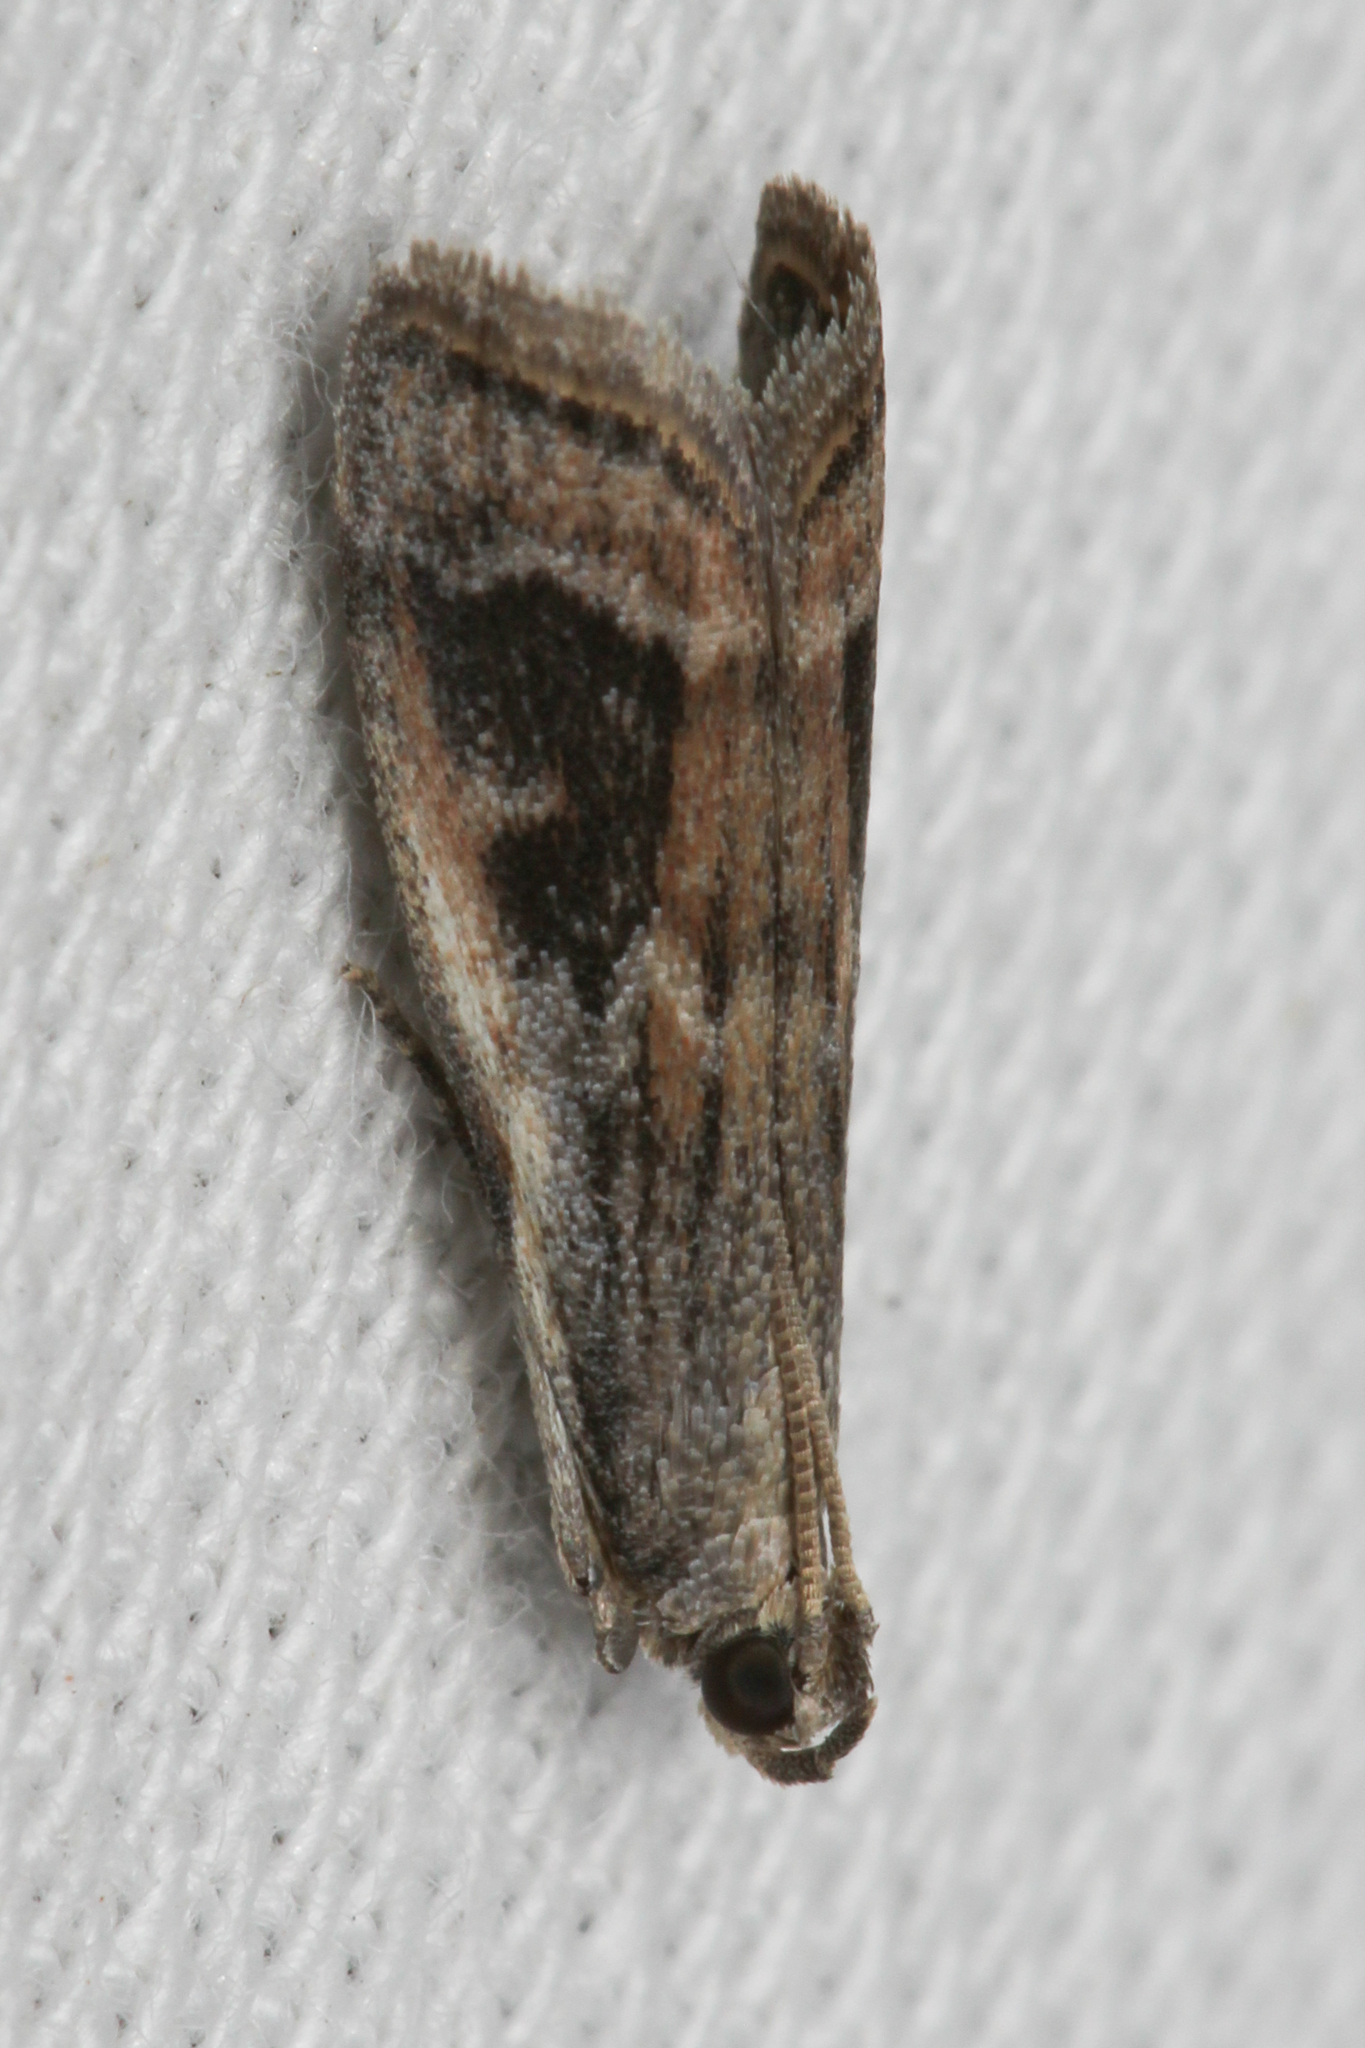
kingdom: Animalia
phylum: Arthropoda
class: Insecta
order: Lepidoptera
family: Pyralidae
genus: Rhodophaea
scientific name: Rhodophaea getuliella
